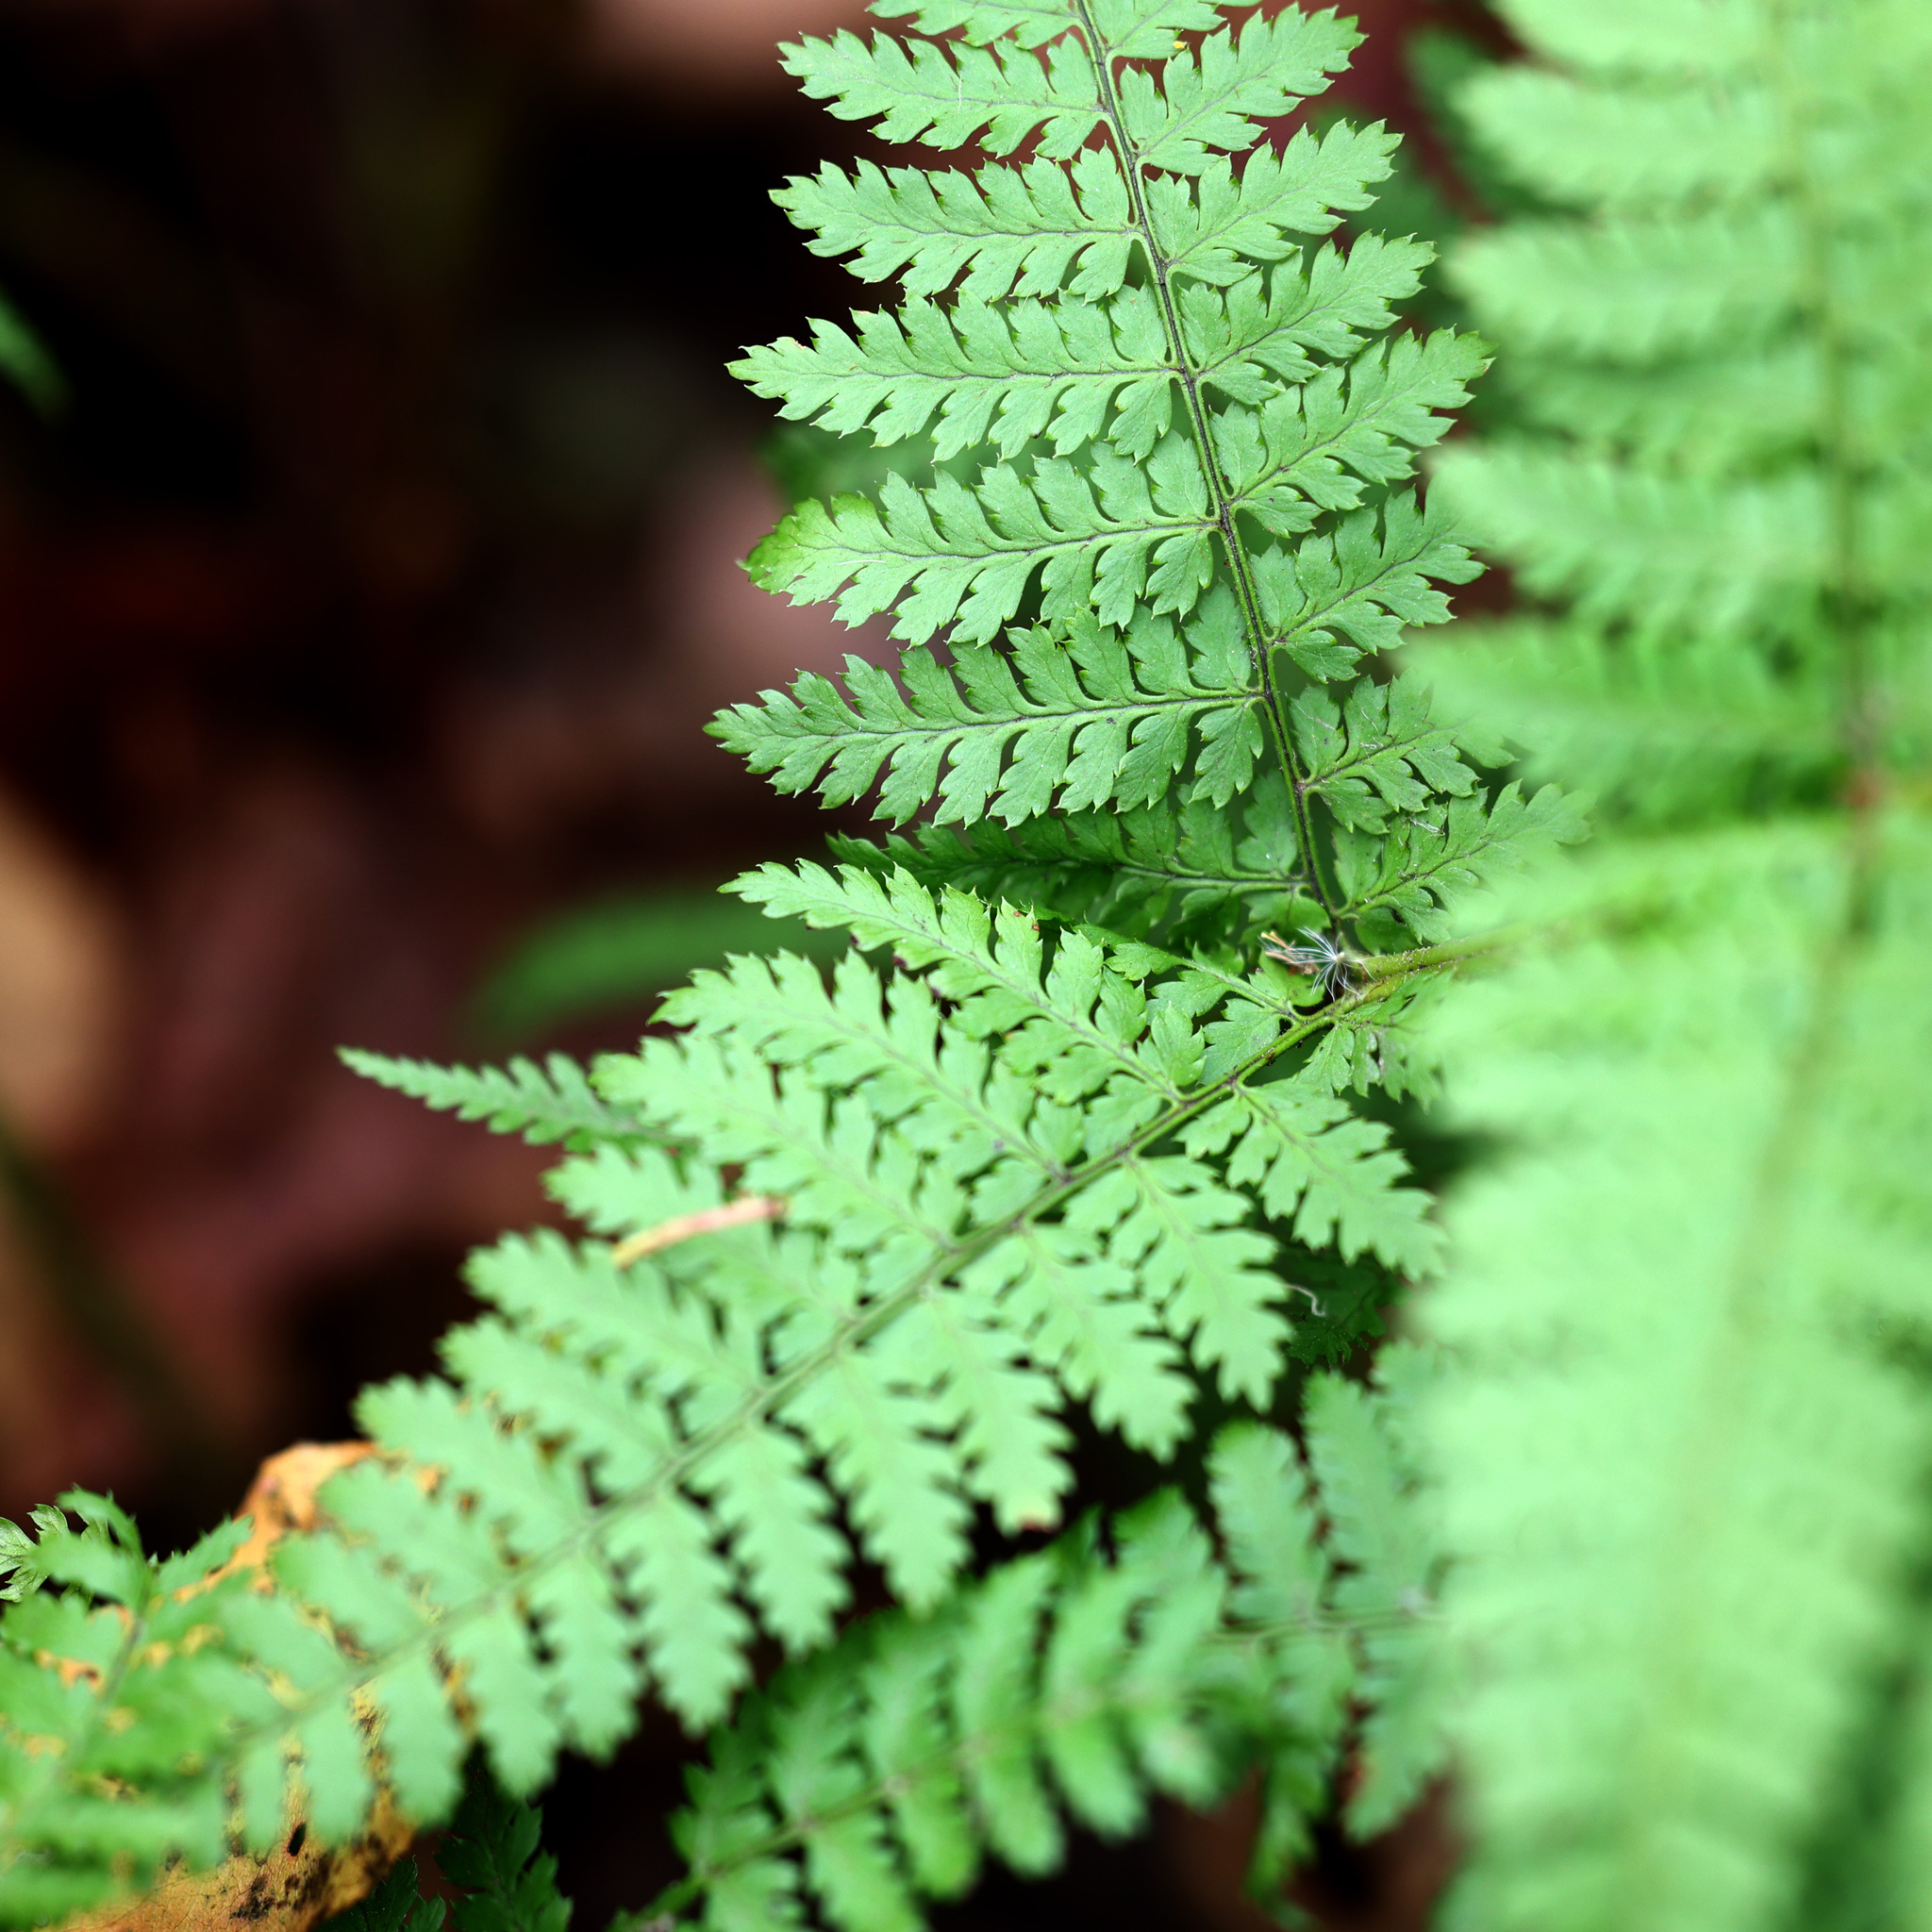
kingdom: Plantae
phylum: Tracheophyta
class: Polypodiopsida
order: Polypodiales
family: Dryopteridaceae
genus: Dryopteris
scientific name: Dryopteris intermedia
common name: Evergreen wood fern
